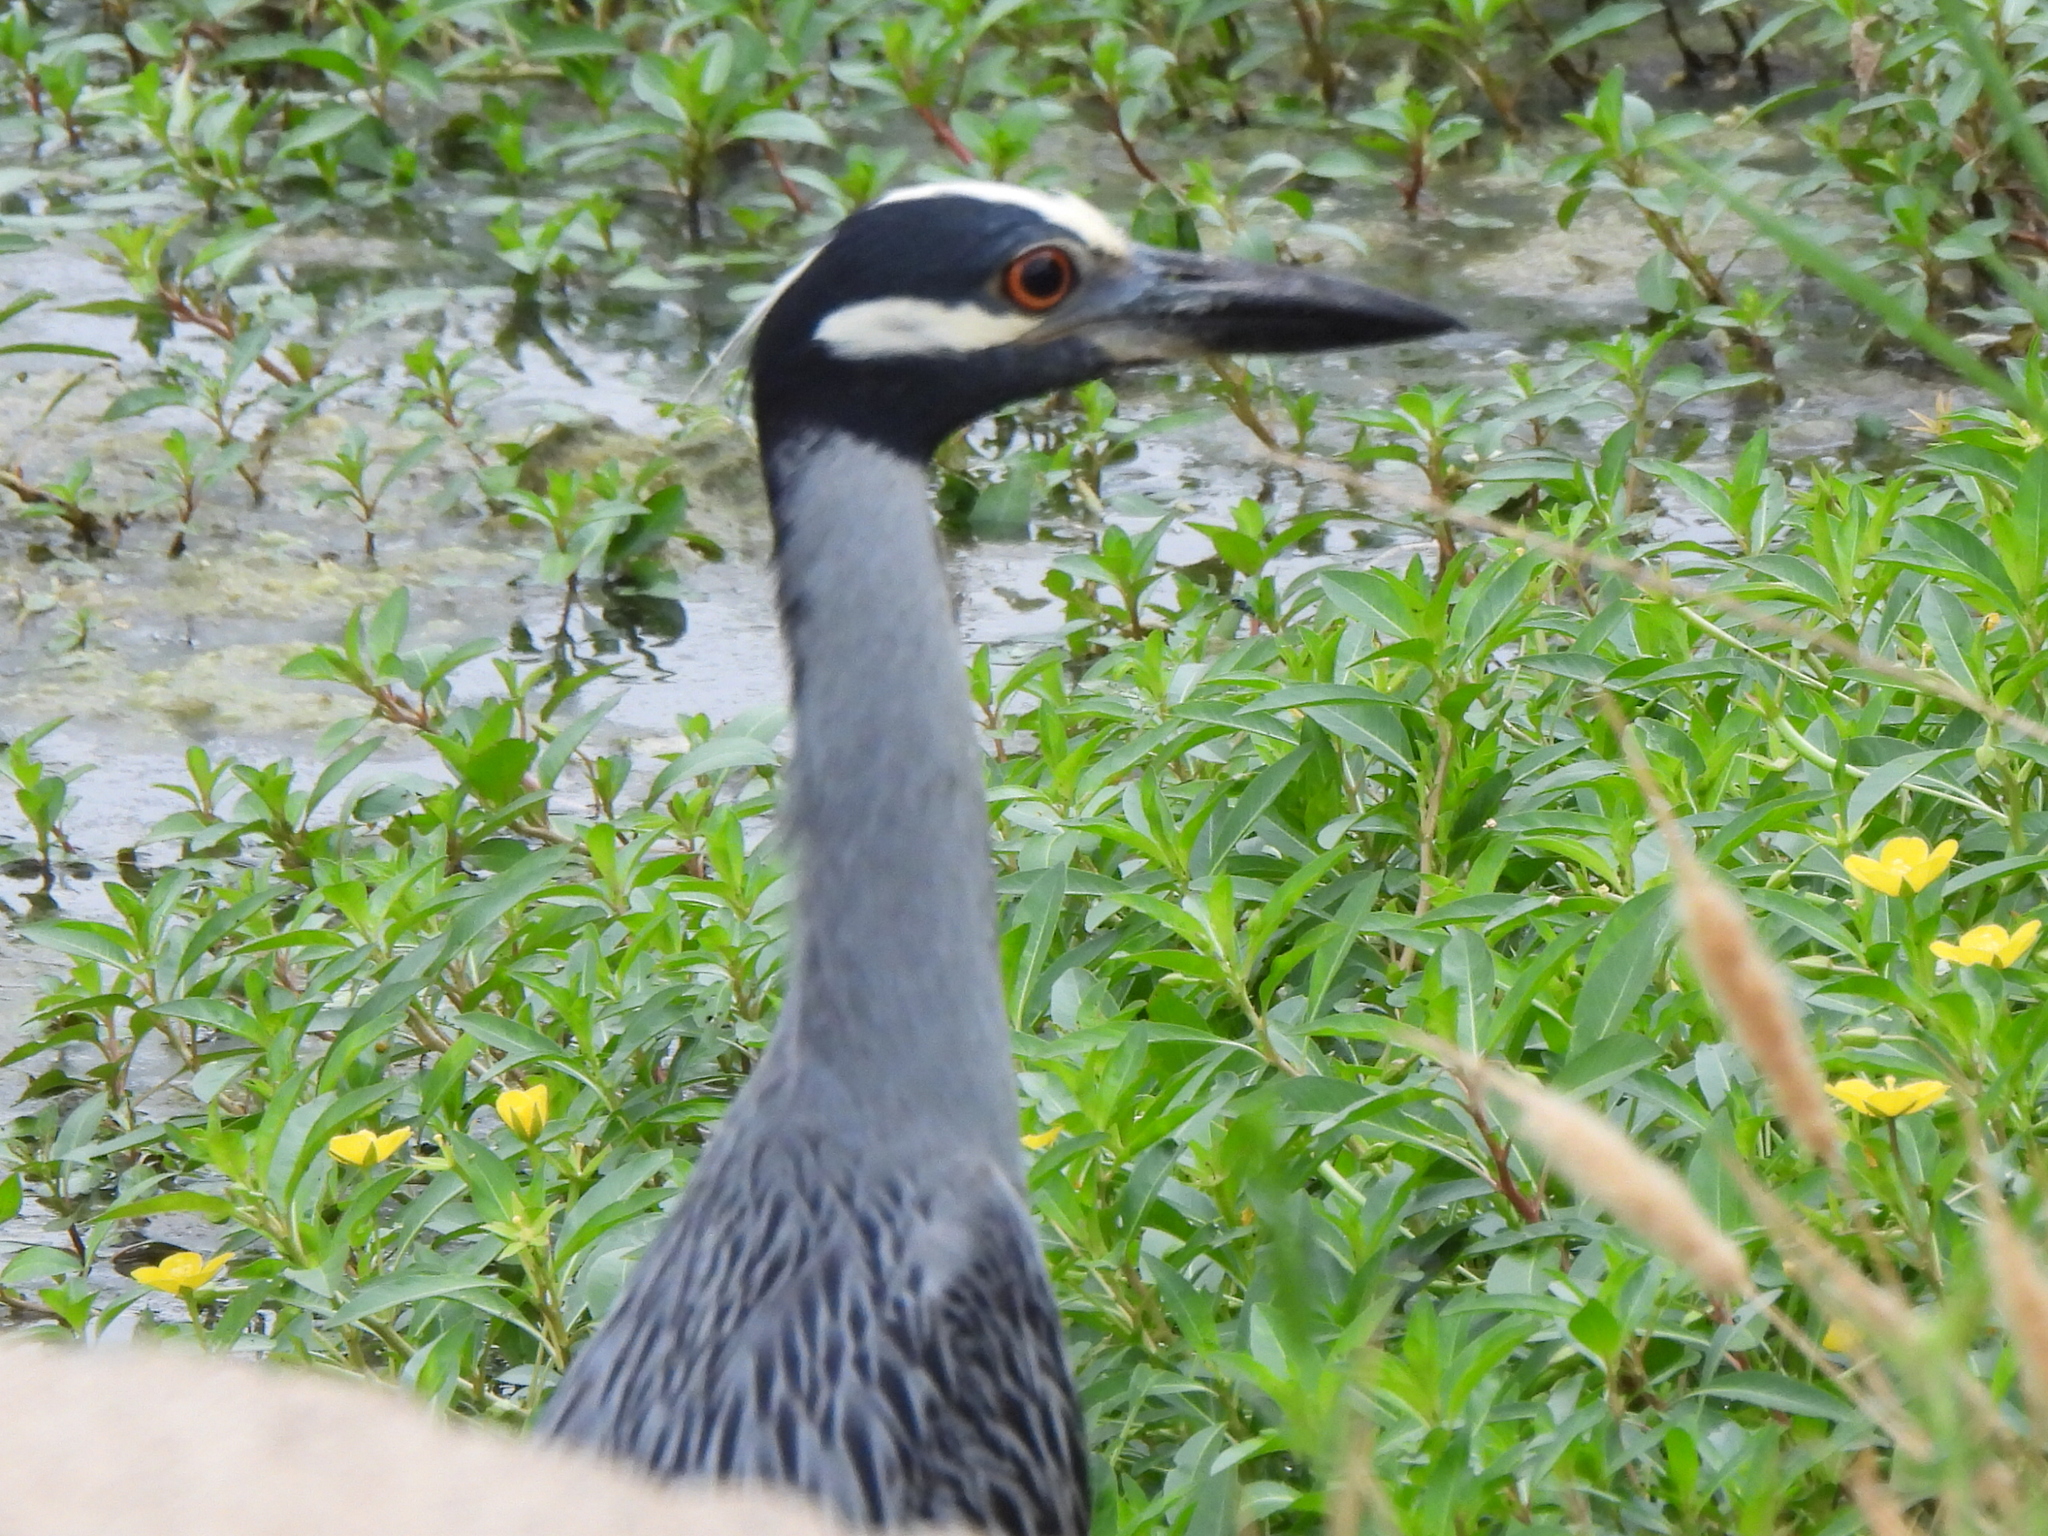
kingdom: Animalia
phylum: Chordata
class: Aves
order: Pelecaniformes
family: Ardeidae
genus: Nyctanassa
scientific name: Nyctanassa violacea
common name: Yellow-crowned night heron
